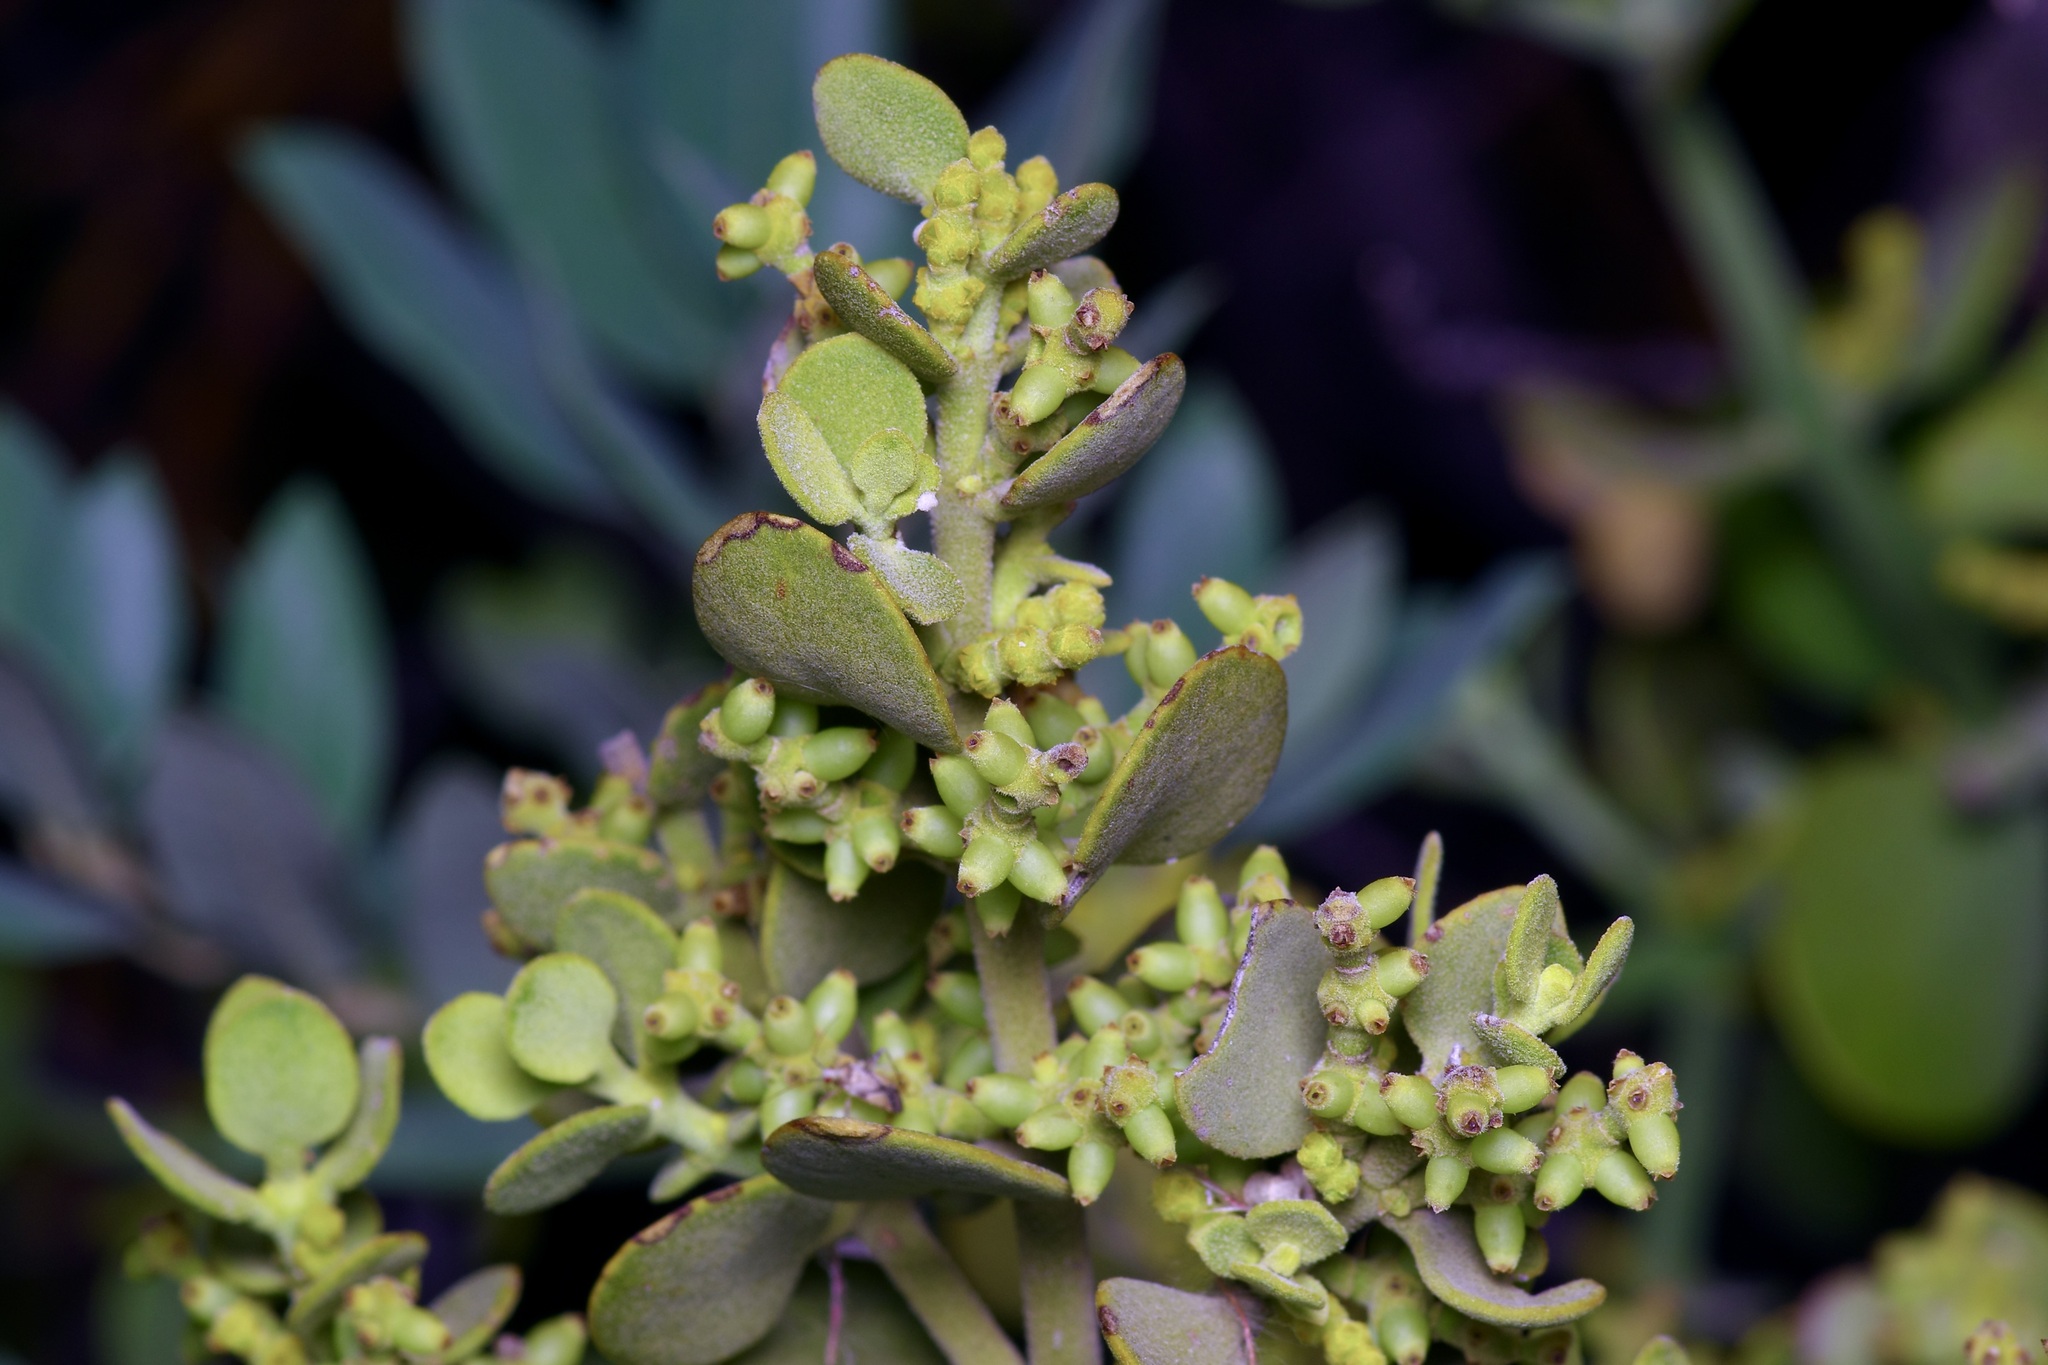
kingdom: Plantae
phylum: Tracheophyta
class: Magnoliopsida
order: Santalales
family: Viscaceae
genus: Phoradendron
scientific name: Phoradendron coryae
